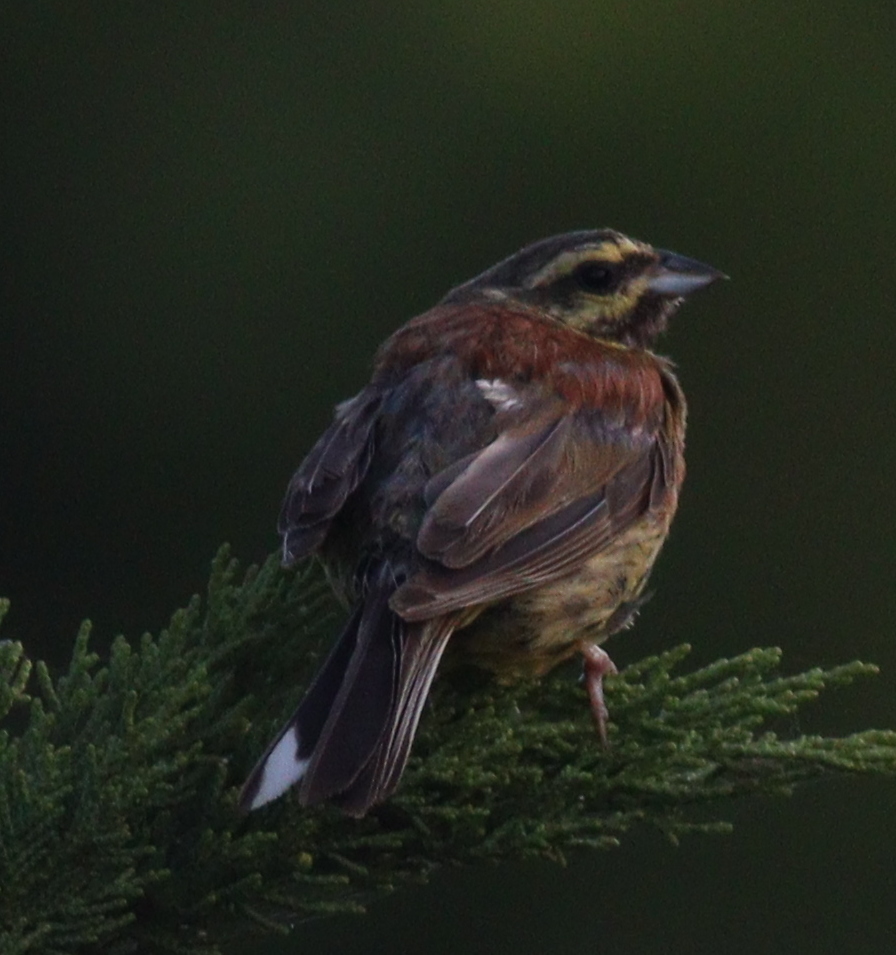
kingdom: Animalia
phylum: Chordata
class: Aves
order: Passeriformes
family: Emberizidae
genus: Emberiza
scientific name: Emberiza cirlus
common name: Cirl bunting
